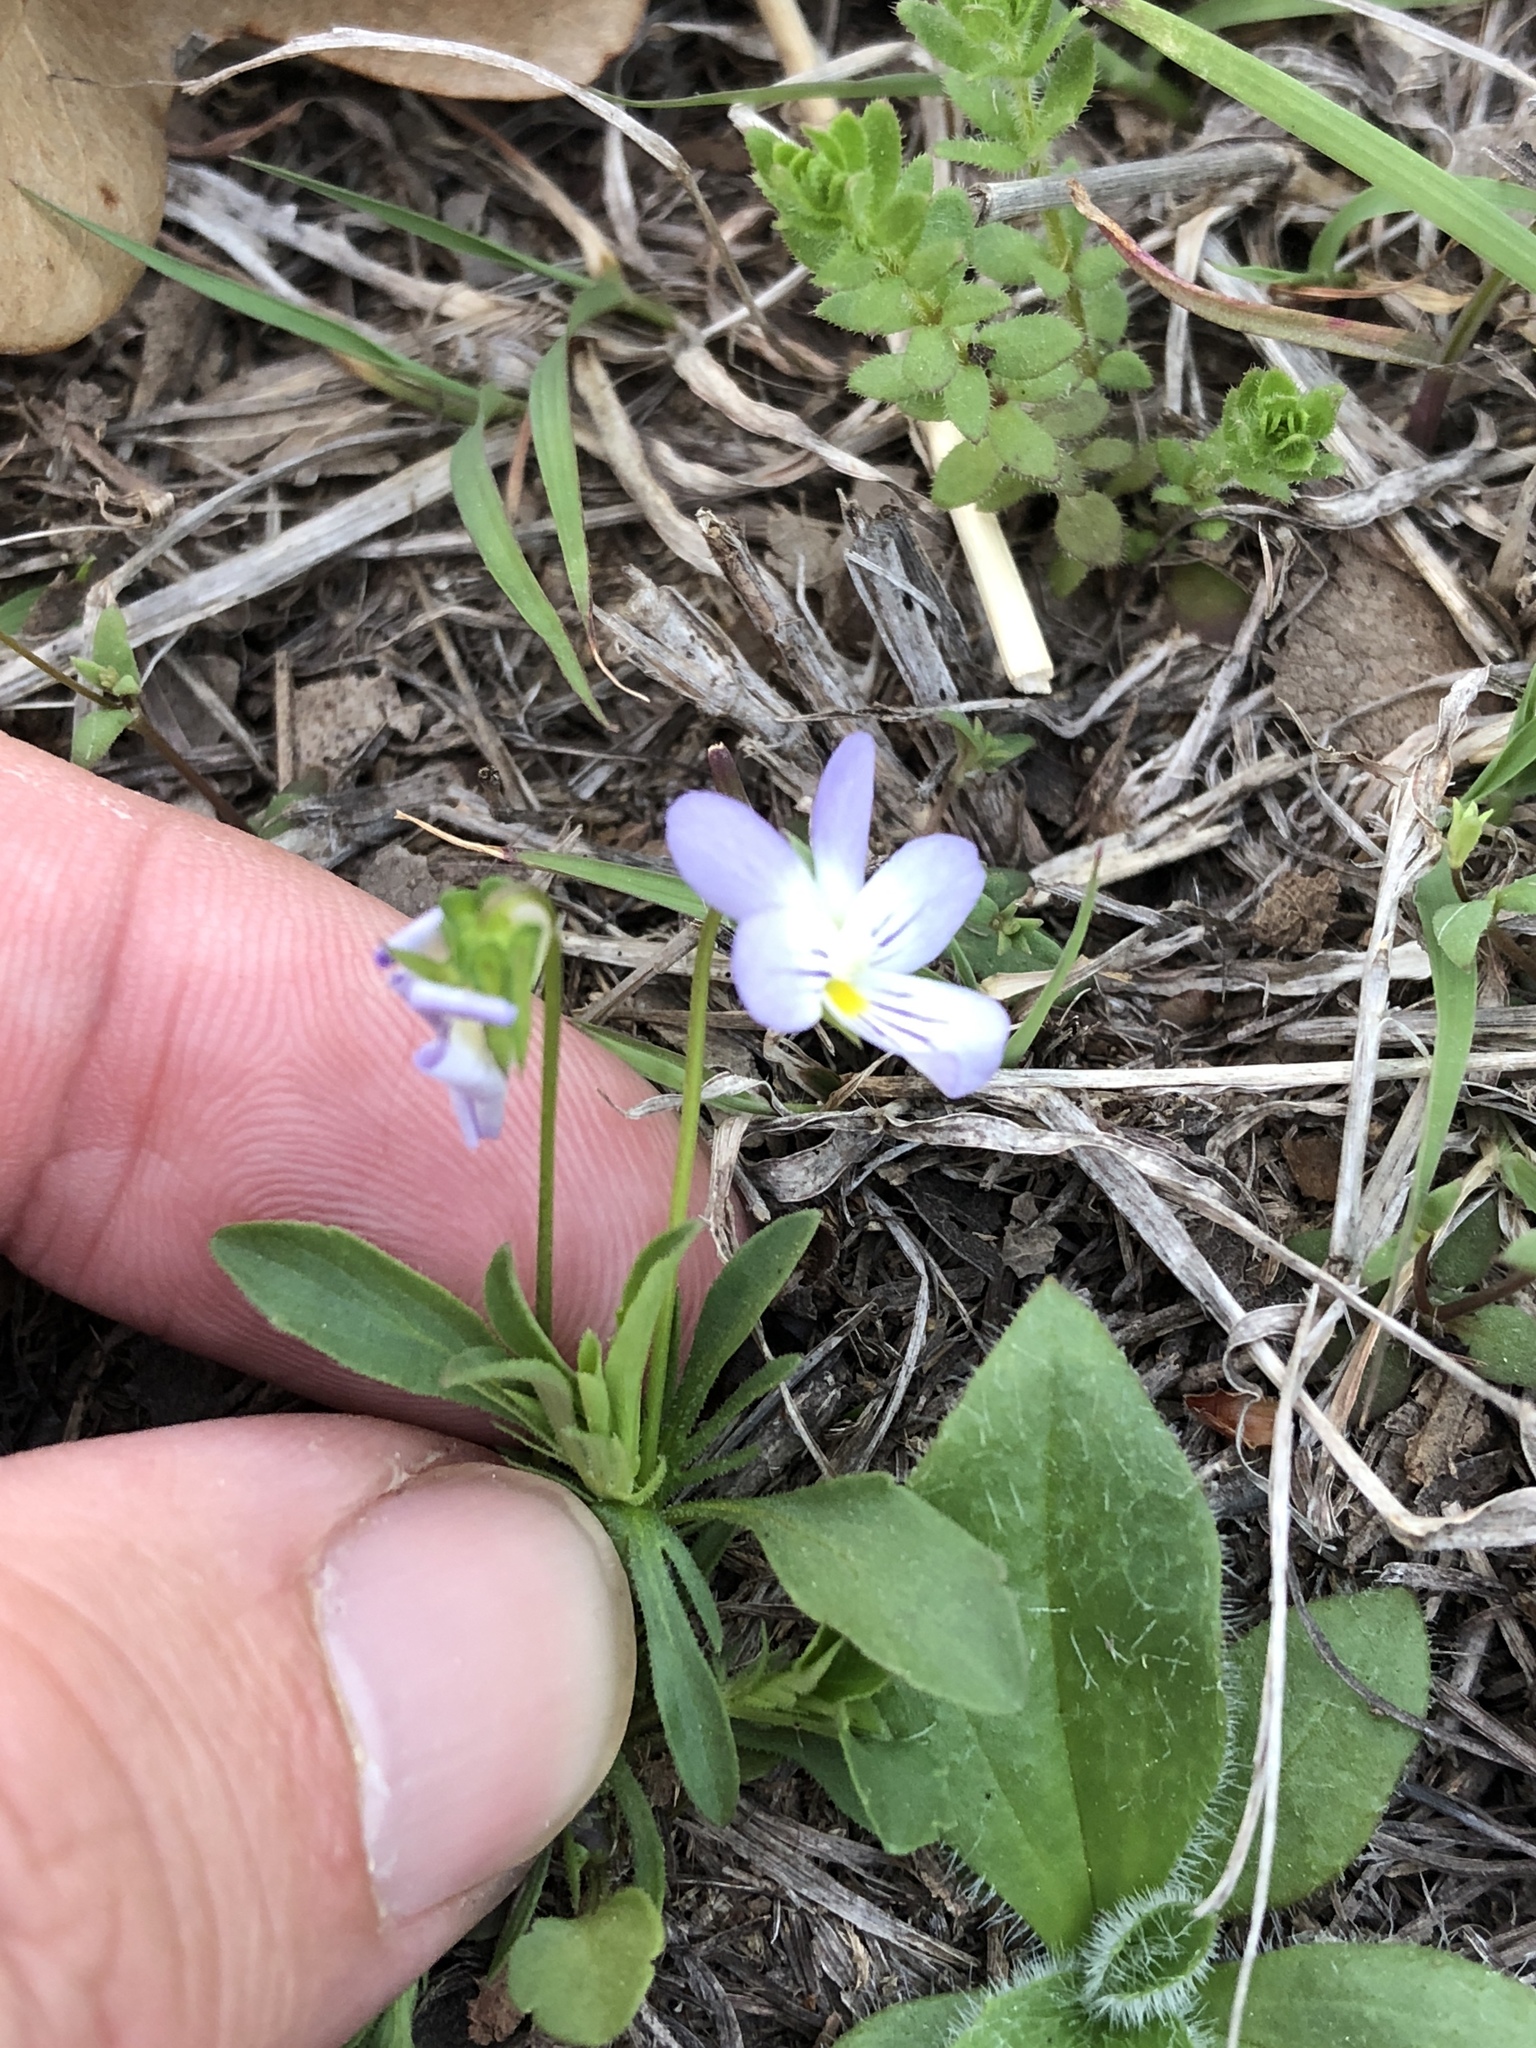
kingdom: Plantae
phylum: Tracheophyta
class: Magnoliopsida
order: Malpighiales
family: Violaceae
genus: Viola
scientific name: Viola rafinesquei
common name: American field pansy
